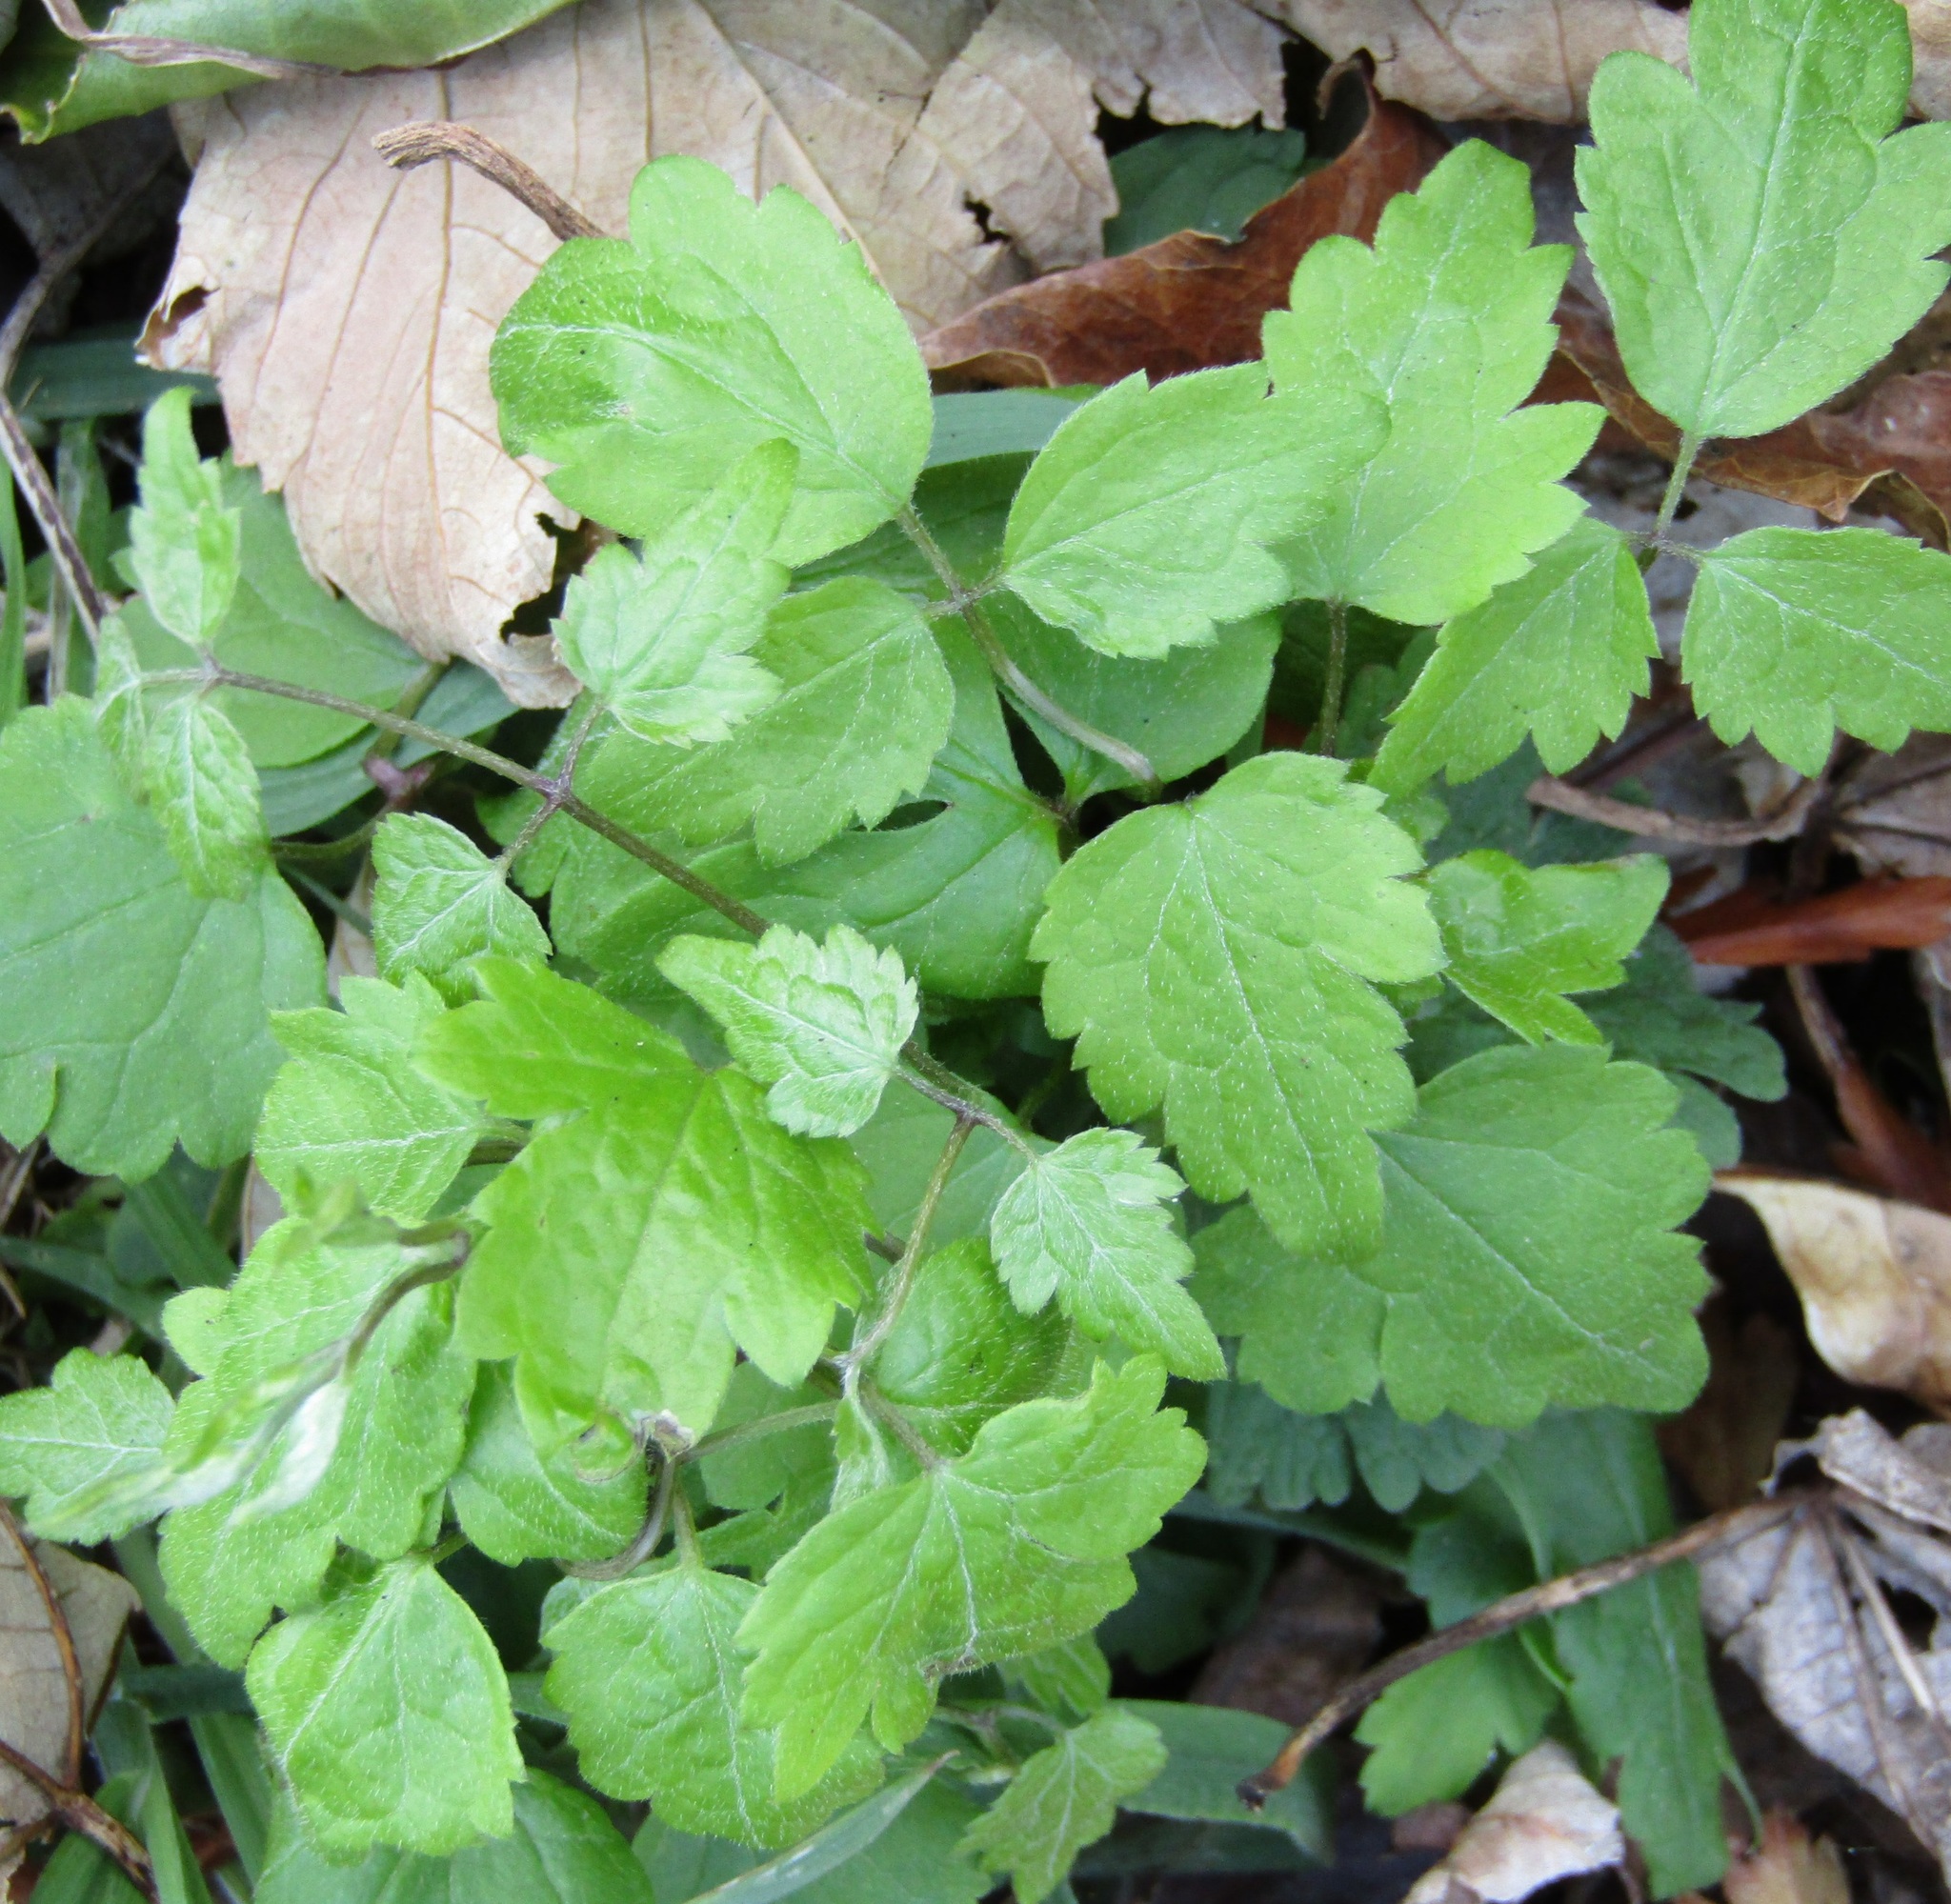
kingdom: Plantae
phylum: Tracheophyta
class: Magnoliopsida
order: Ranunculales
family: Ranunculaceae
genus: Clematis
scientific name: Clematis vitalba
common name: Evergreen clematis
